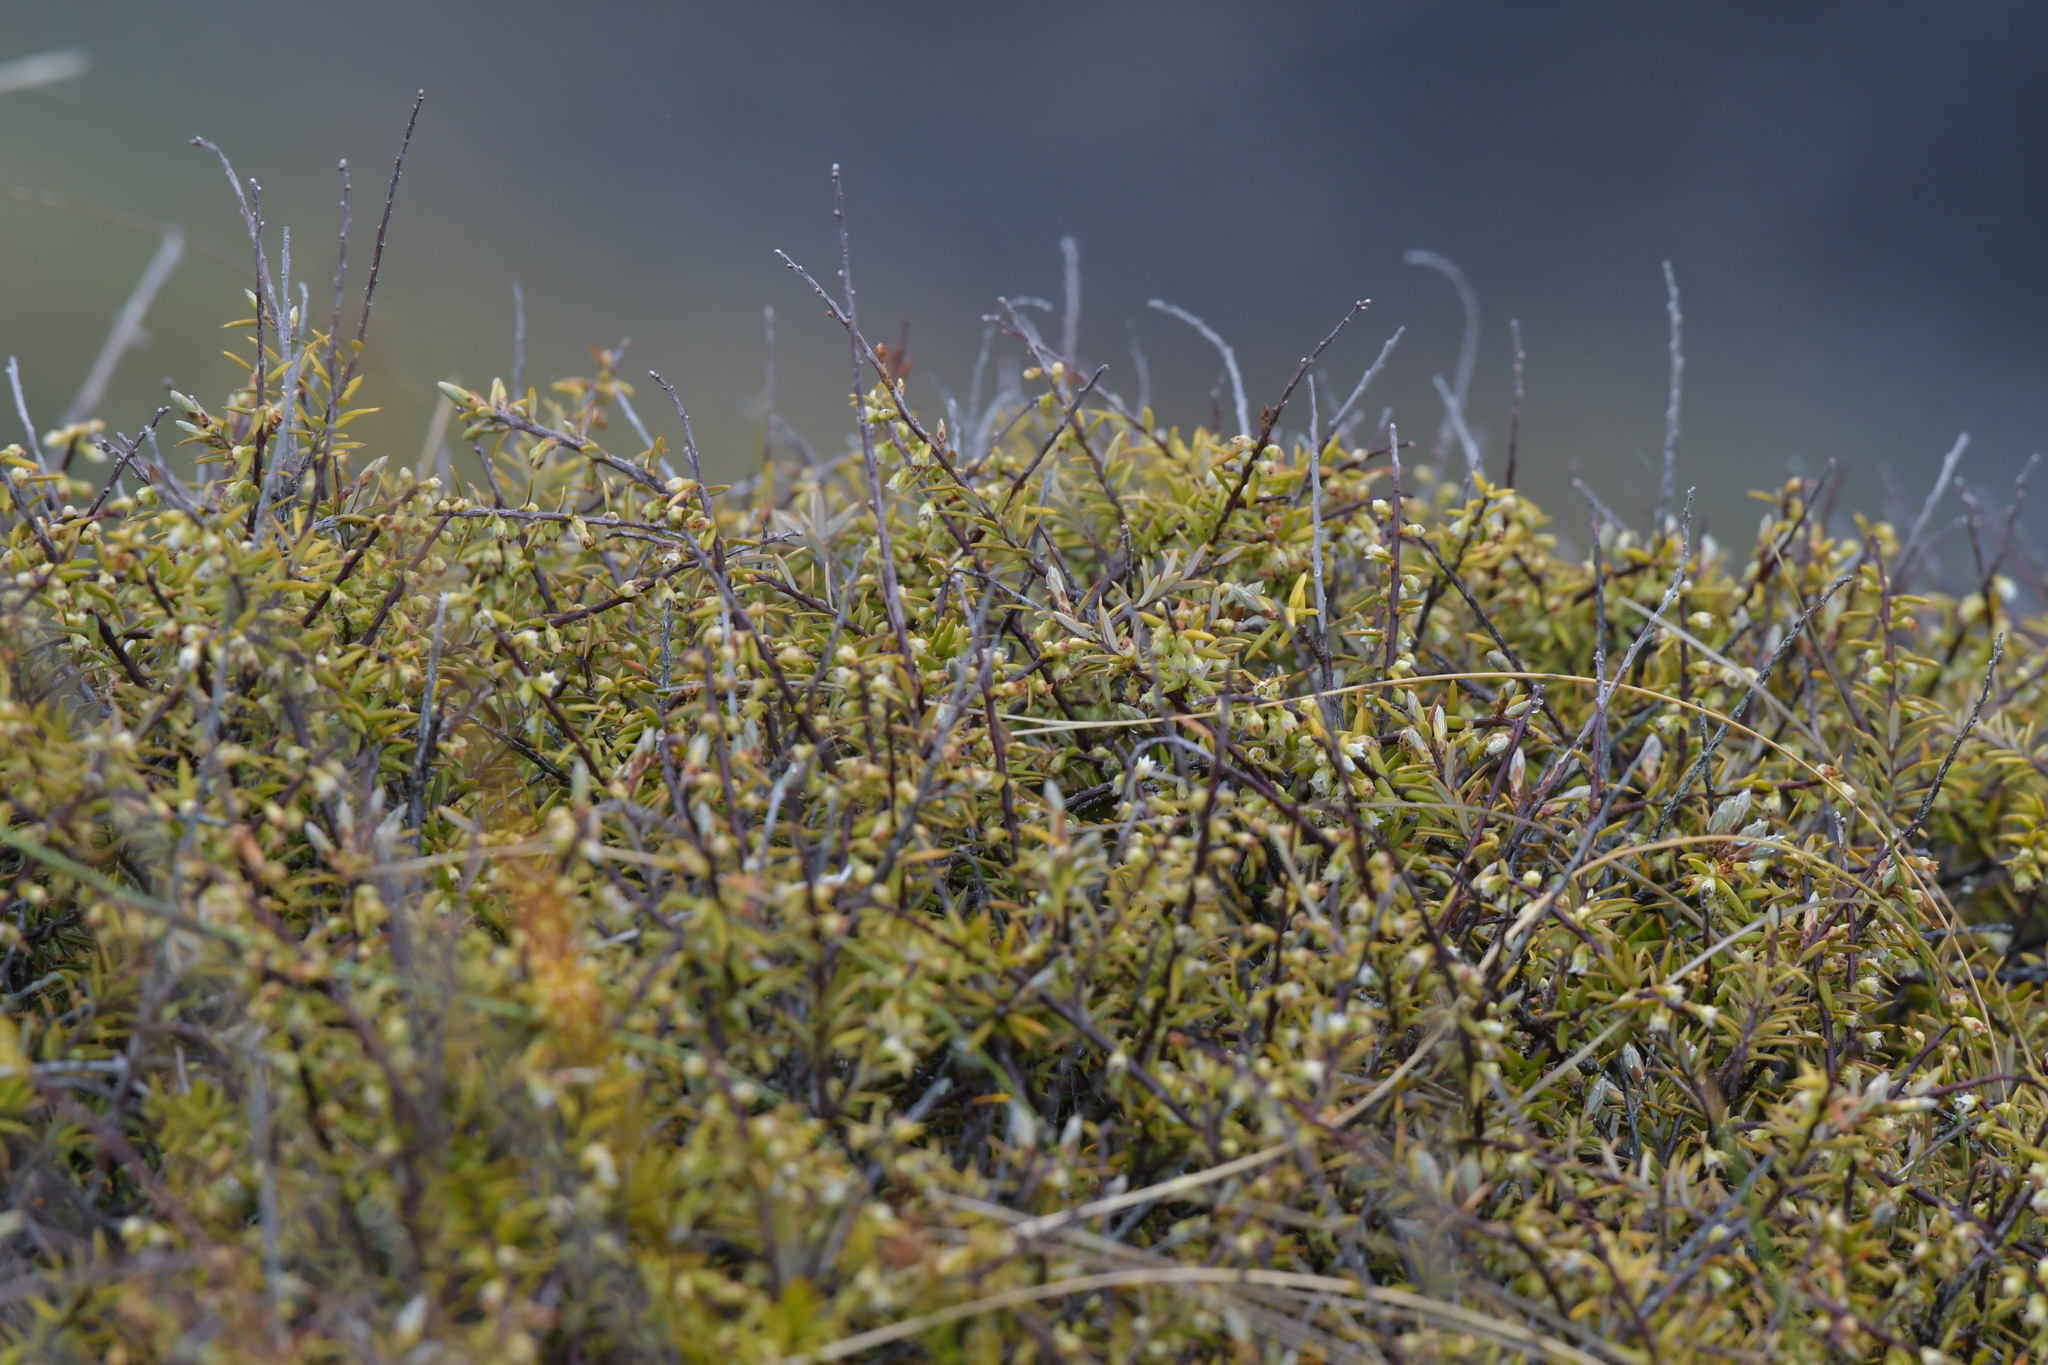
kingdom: Plantae
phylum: Tracheophyta
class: Magnoliopsida
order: Ericales
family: Ericaceae
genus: Leptecophylla
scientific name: Leptecophylla juniperina
